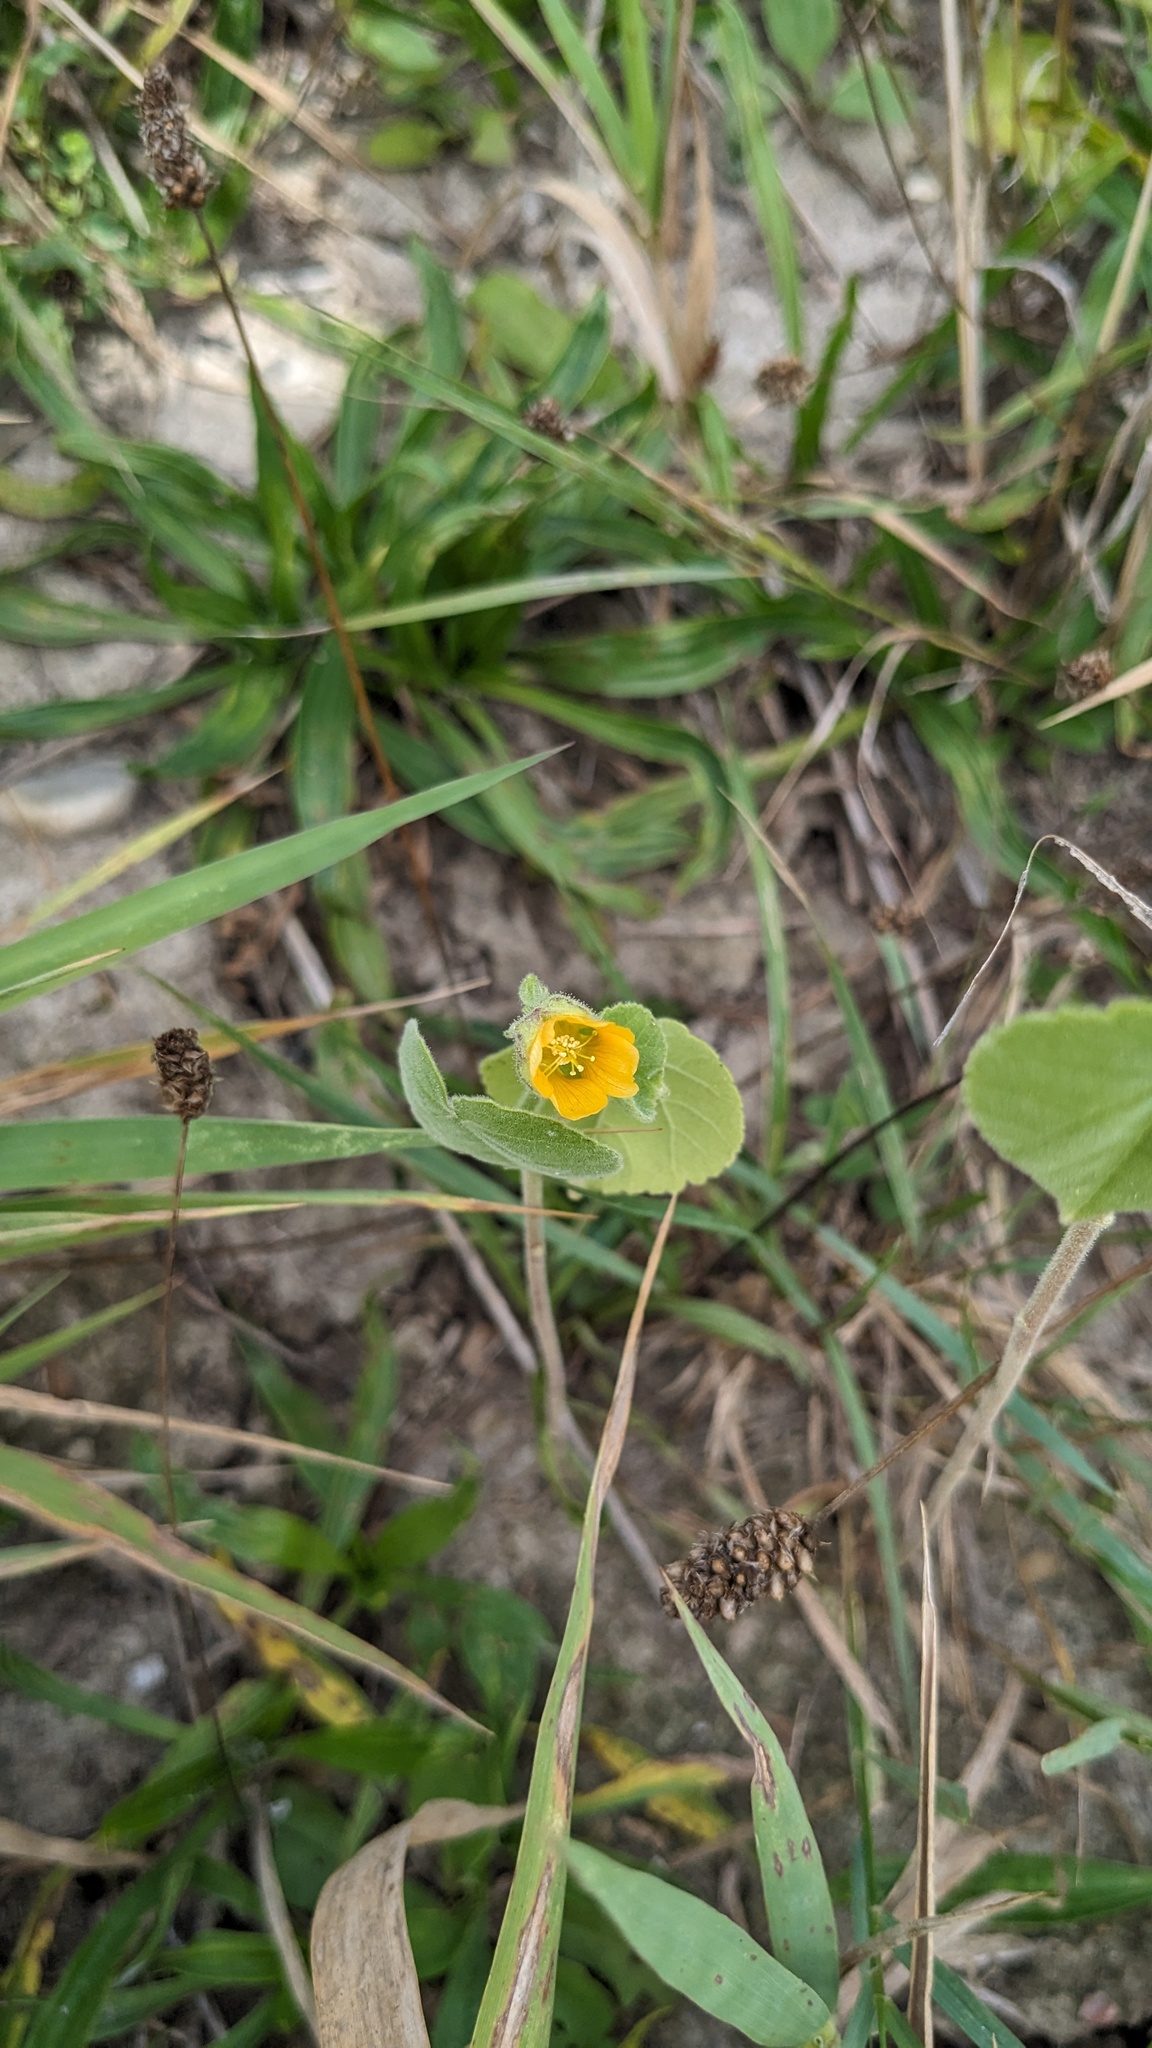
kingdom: Plantae
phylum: Tracheophyta
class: Magnoliopsida
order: Malvales
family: Malvaceae
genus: Abutilon
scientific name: Abutilon theophrasti
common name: Velvetleaf
